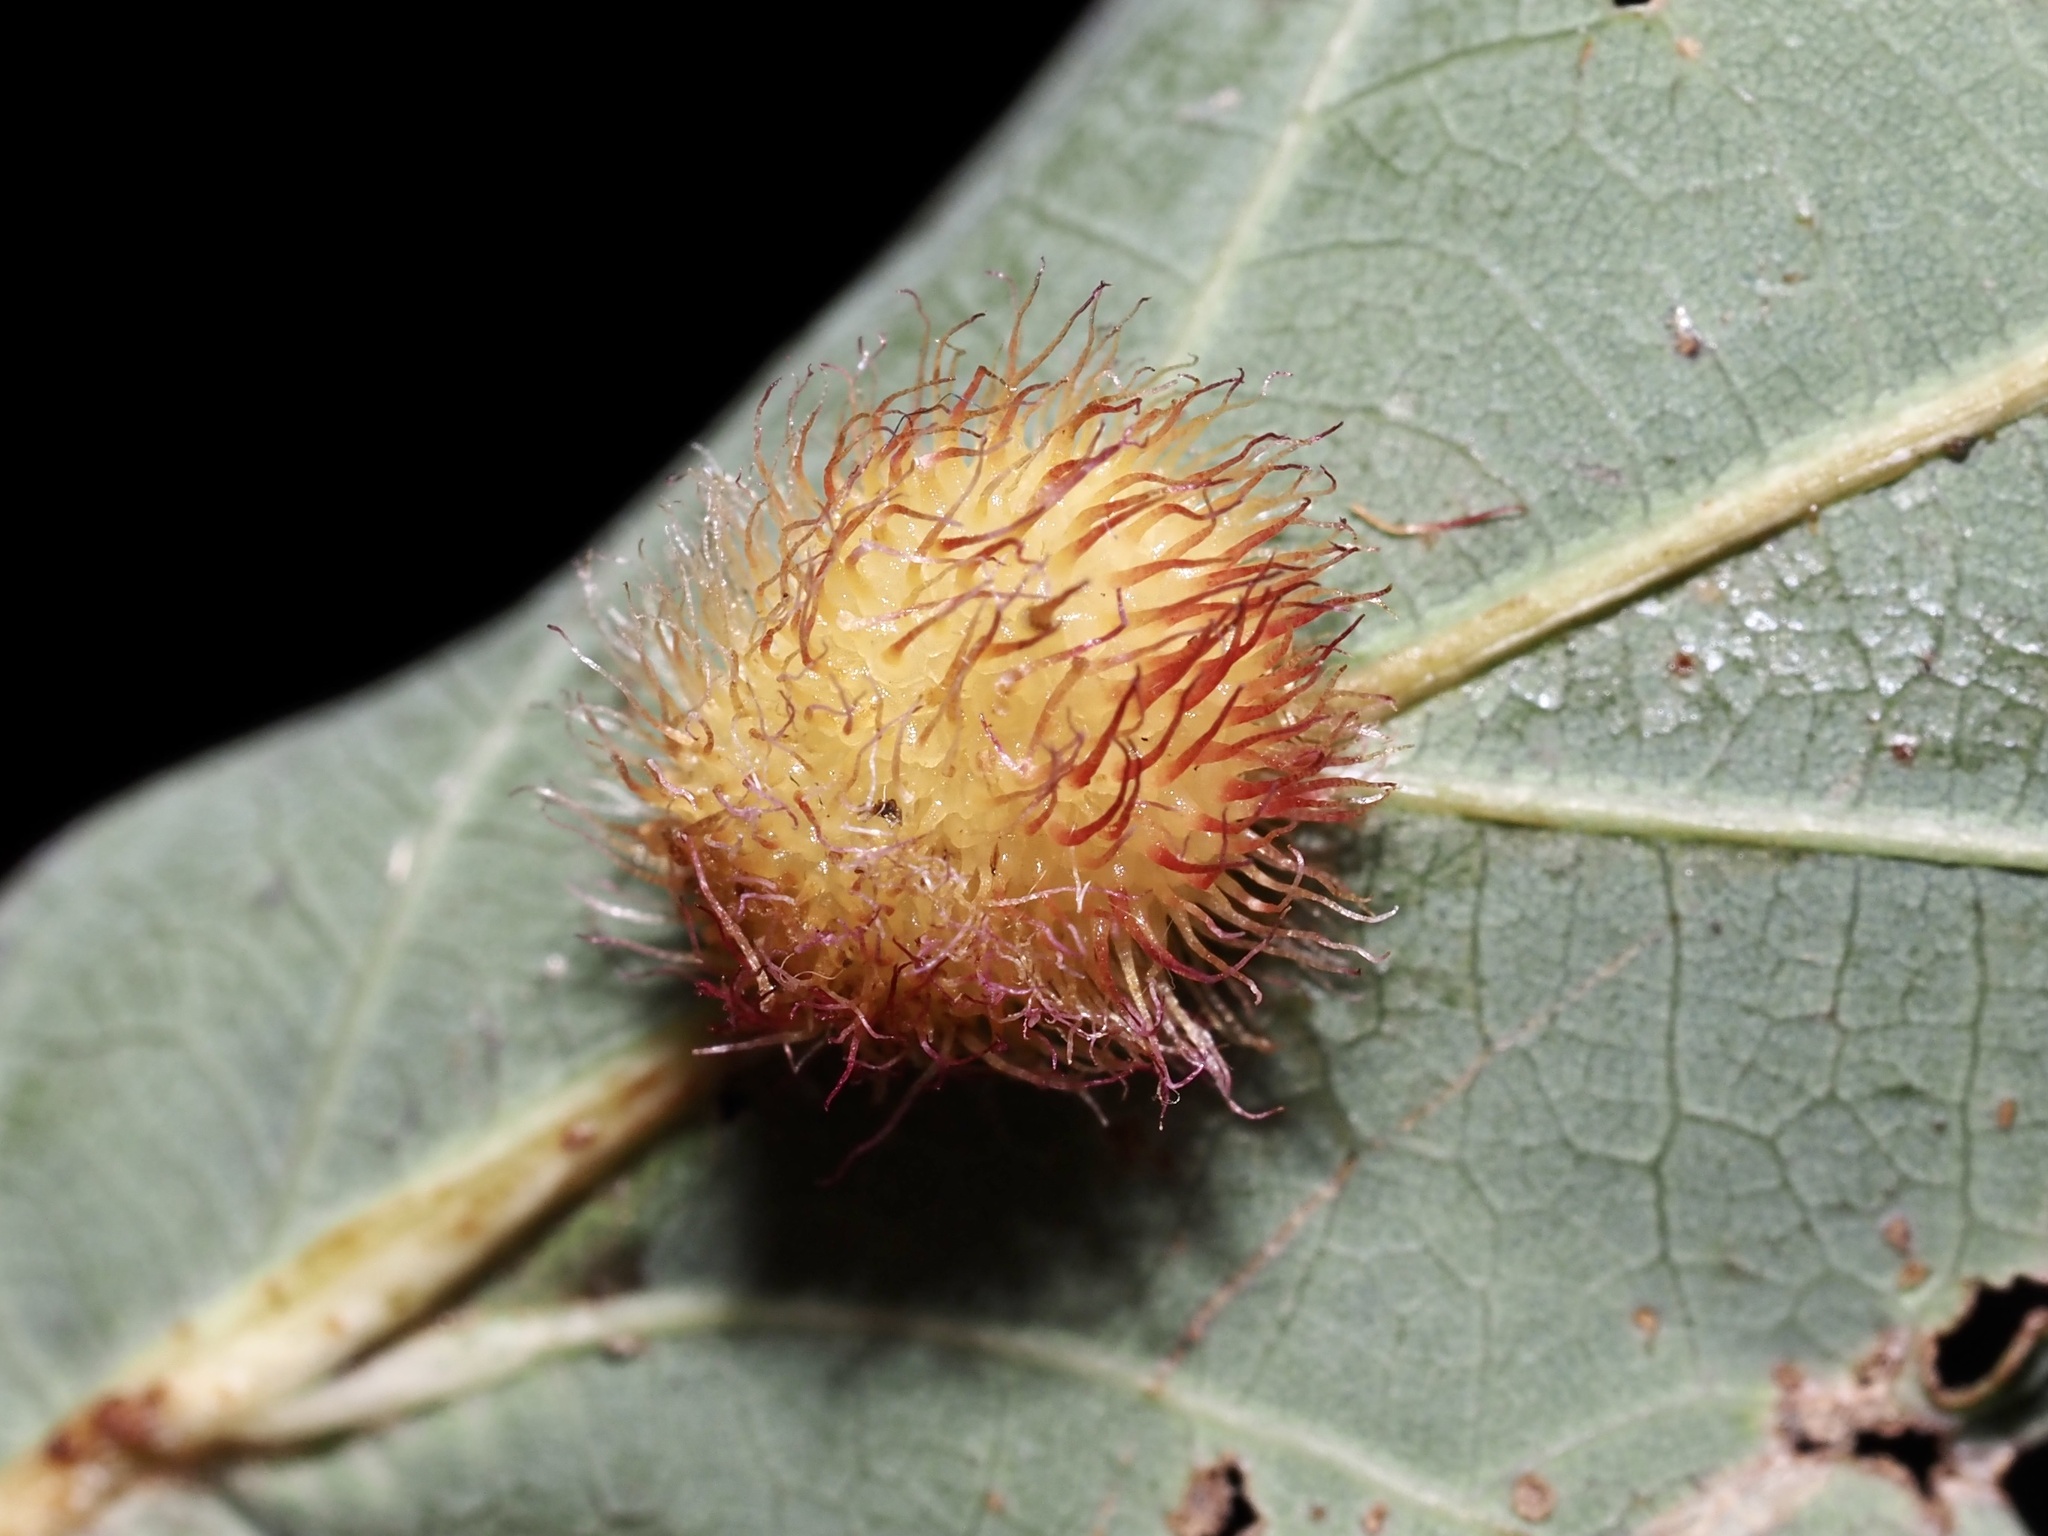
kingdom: Animalia
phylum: Arthropoda
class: Insecta
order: Hymenoptera
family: Cynipidae
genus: Acraspis
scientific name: Acraspis erinacei
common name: Hedgehog gall wasp
